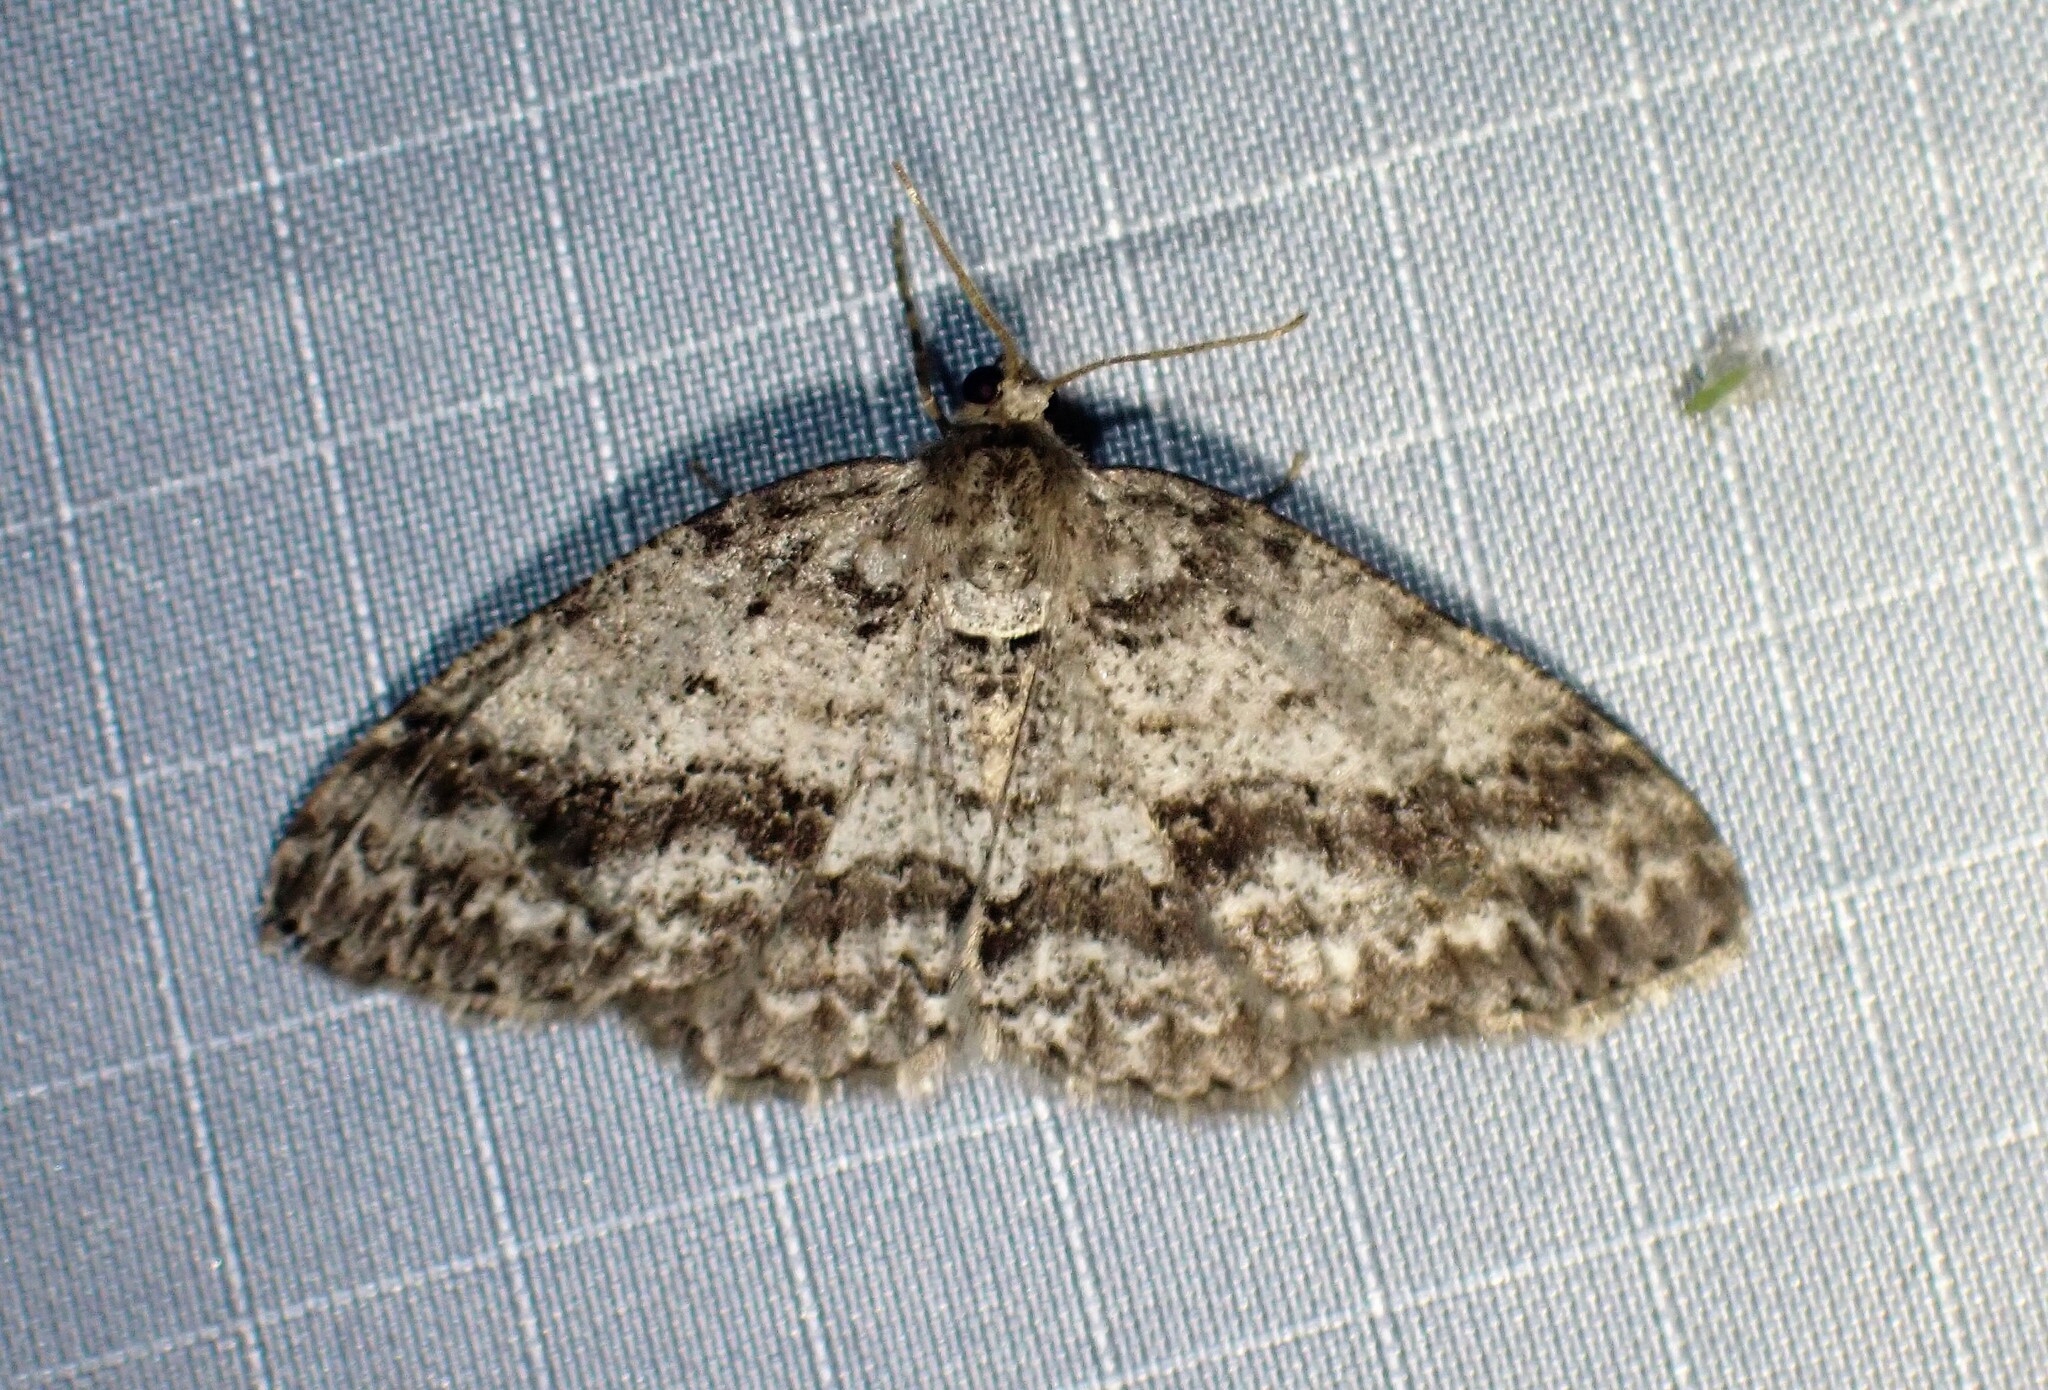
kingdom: Animalia
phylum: Arthropoda
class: Insecta
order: Lepidoptera
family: Geometridae
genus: Ectropis
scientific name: Ectropis crepuscularia
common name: Engrailed
